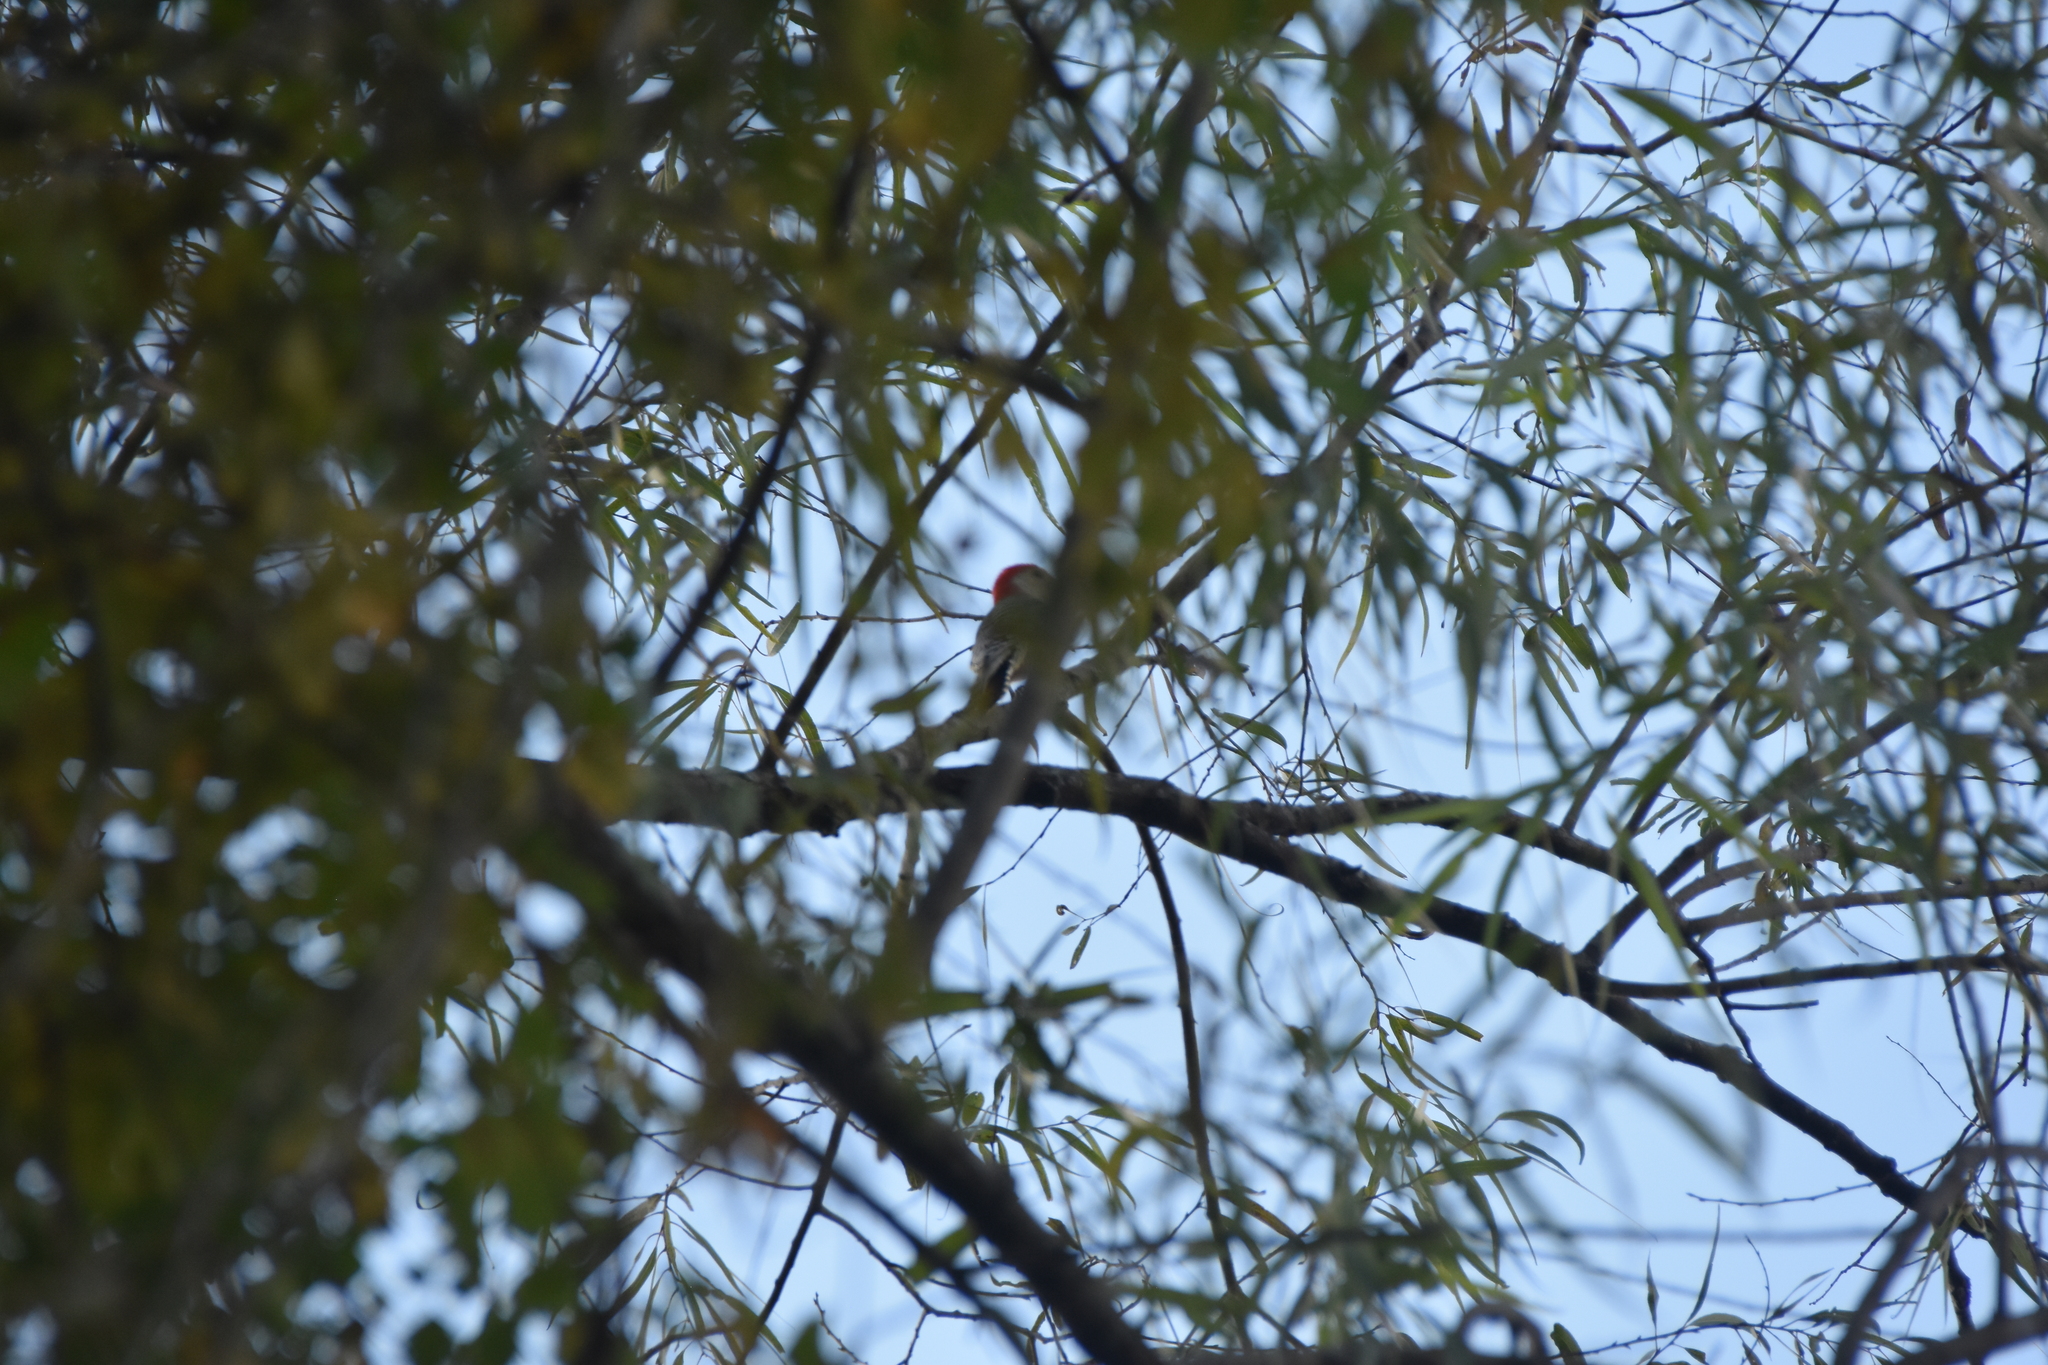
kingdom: Animalia
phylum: Chordata
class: Aves
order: Piciformes
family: Picidae
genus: Melanerpes
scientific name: Melanerpes carolinus
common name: Red-bellied woodpecker
